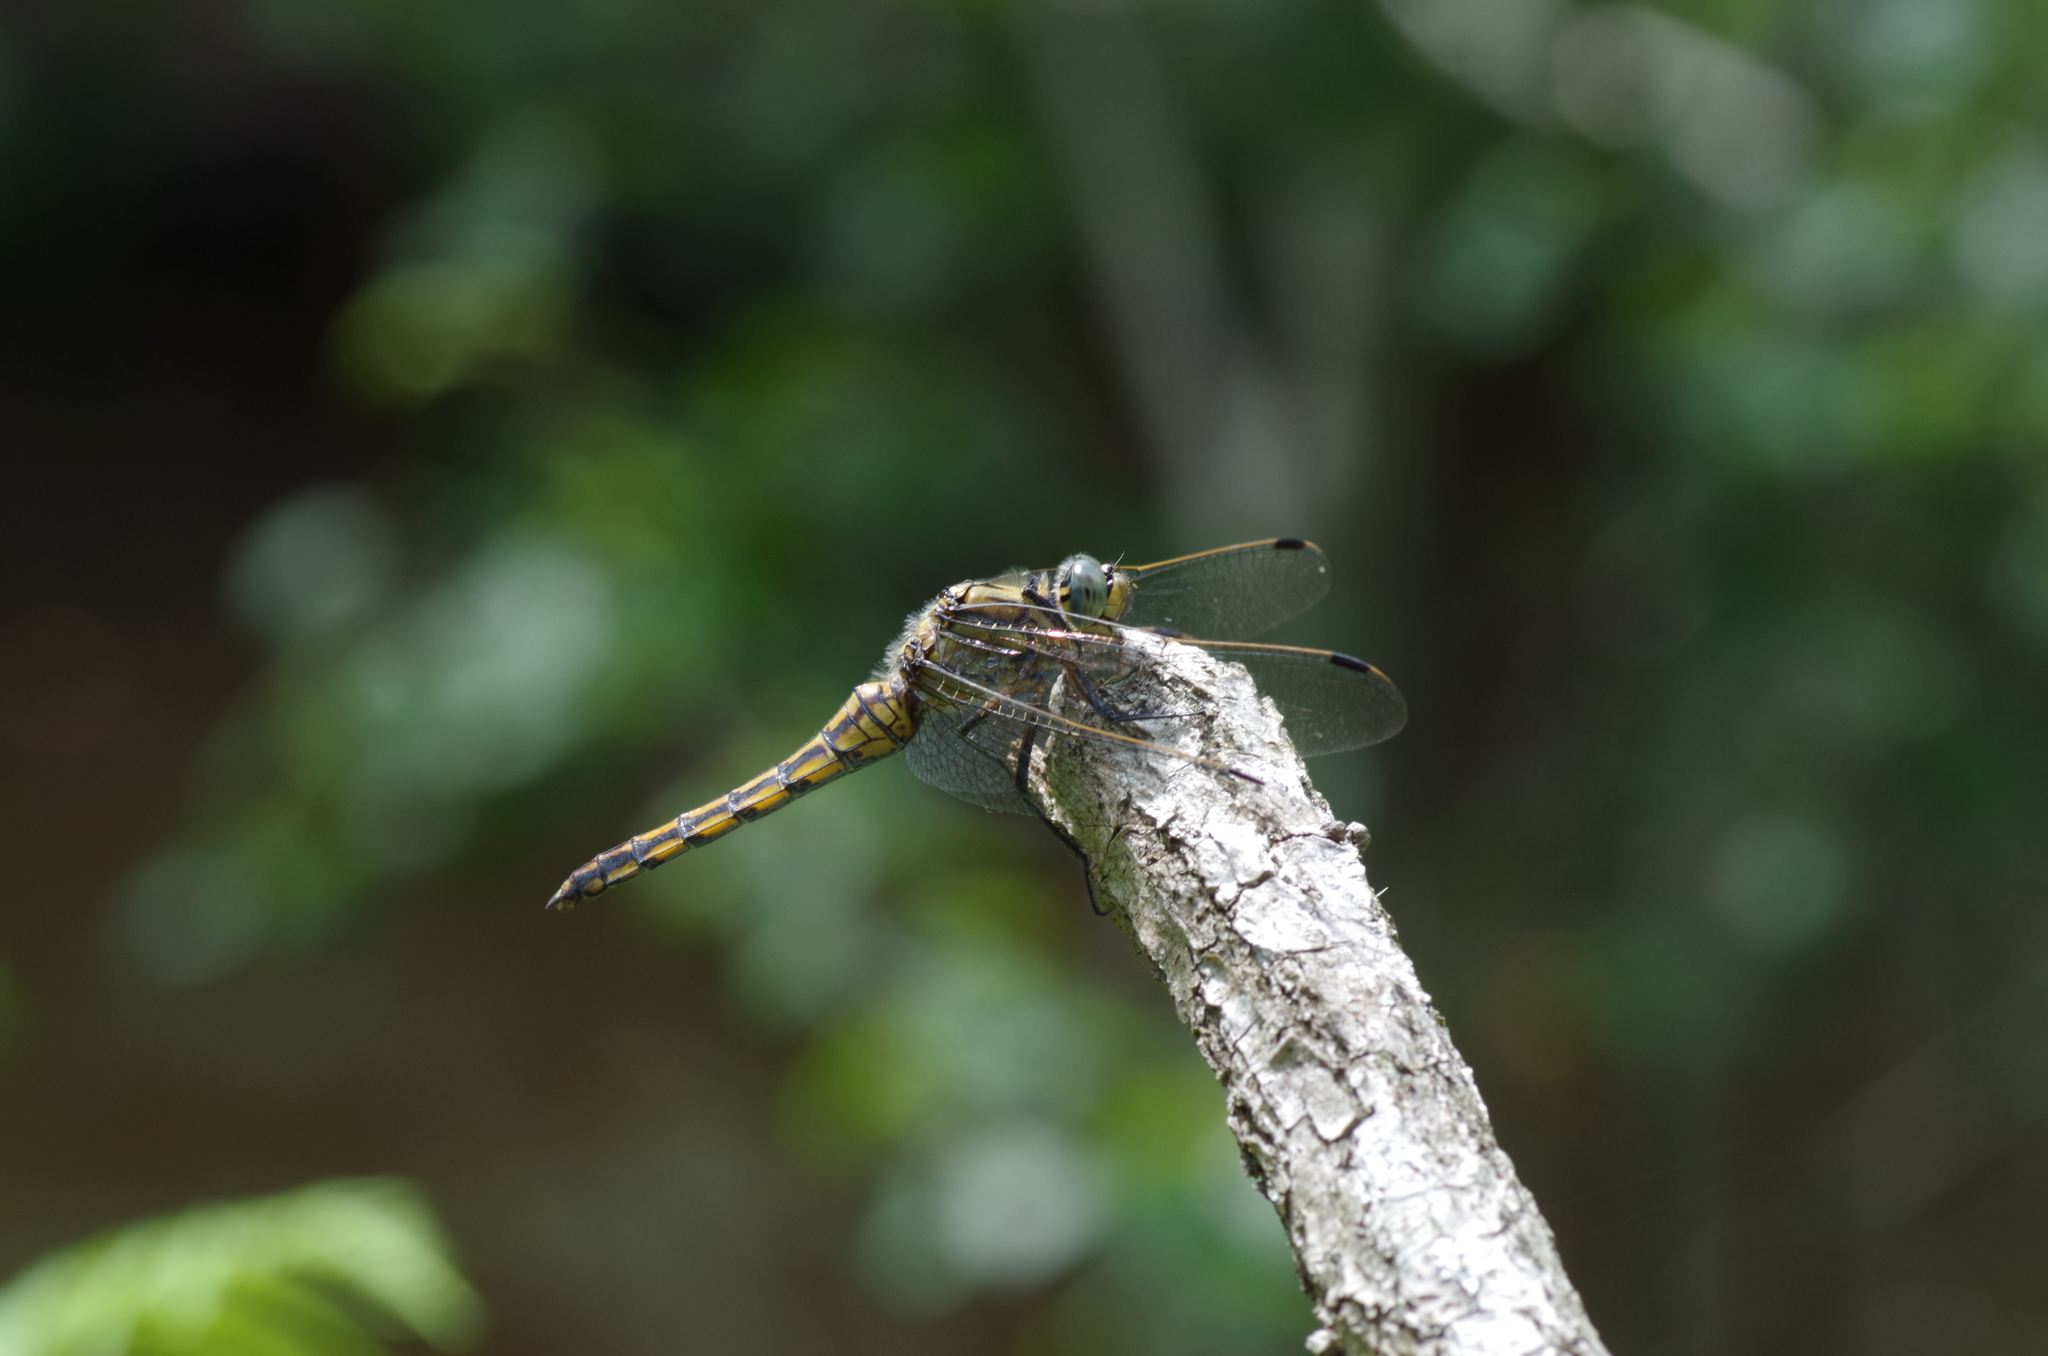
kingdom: Animalia
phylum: Arthropoda
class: Insecta
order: Odonata
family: Libellulidae
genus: Orthetrum
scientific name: Orthetrum cancellatum
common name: Black-tailed skimmer
